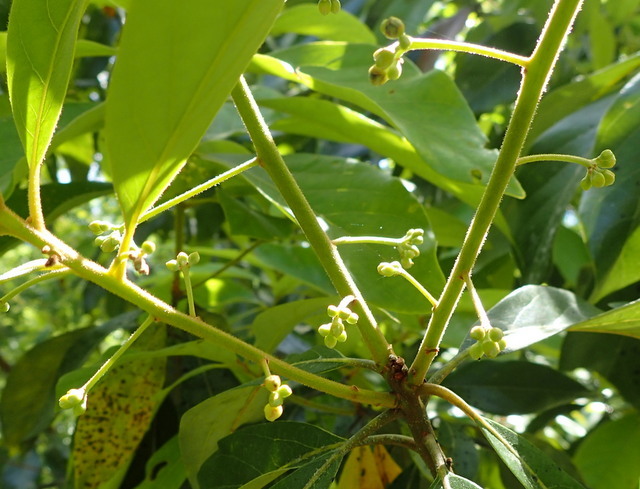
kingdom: Plantae
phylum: Tracheophyta
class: Magnoliopsida
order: Laurales
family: Lauraceae
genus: Persea
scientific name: Persea palustris
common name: Swampbay
